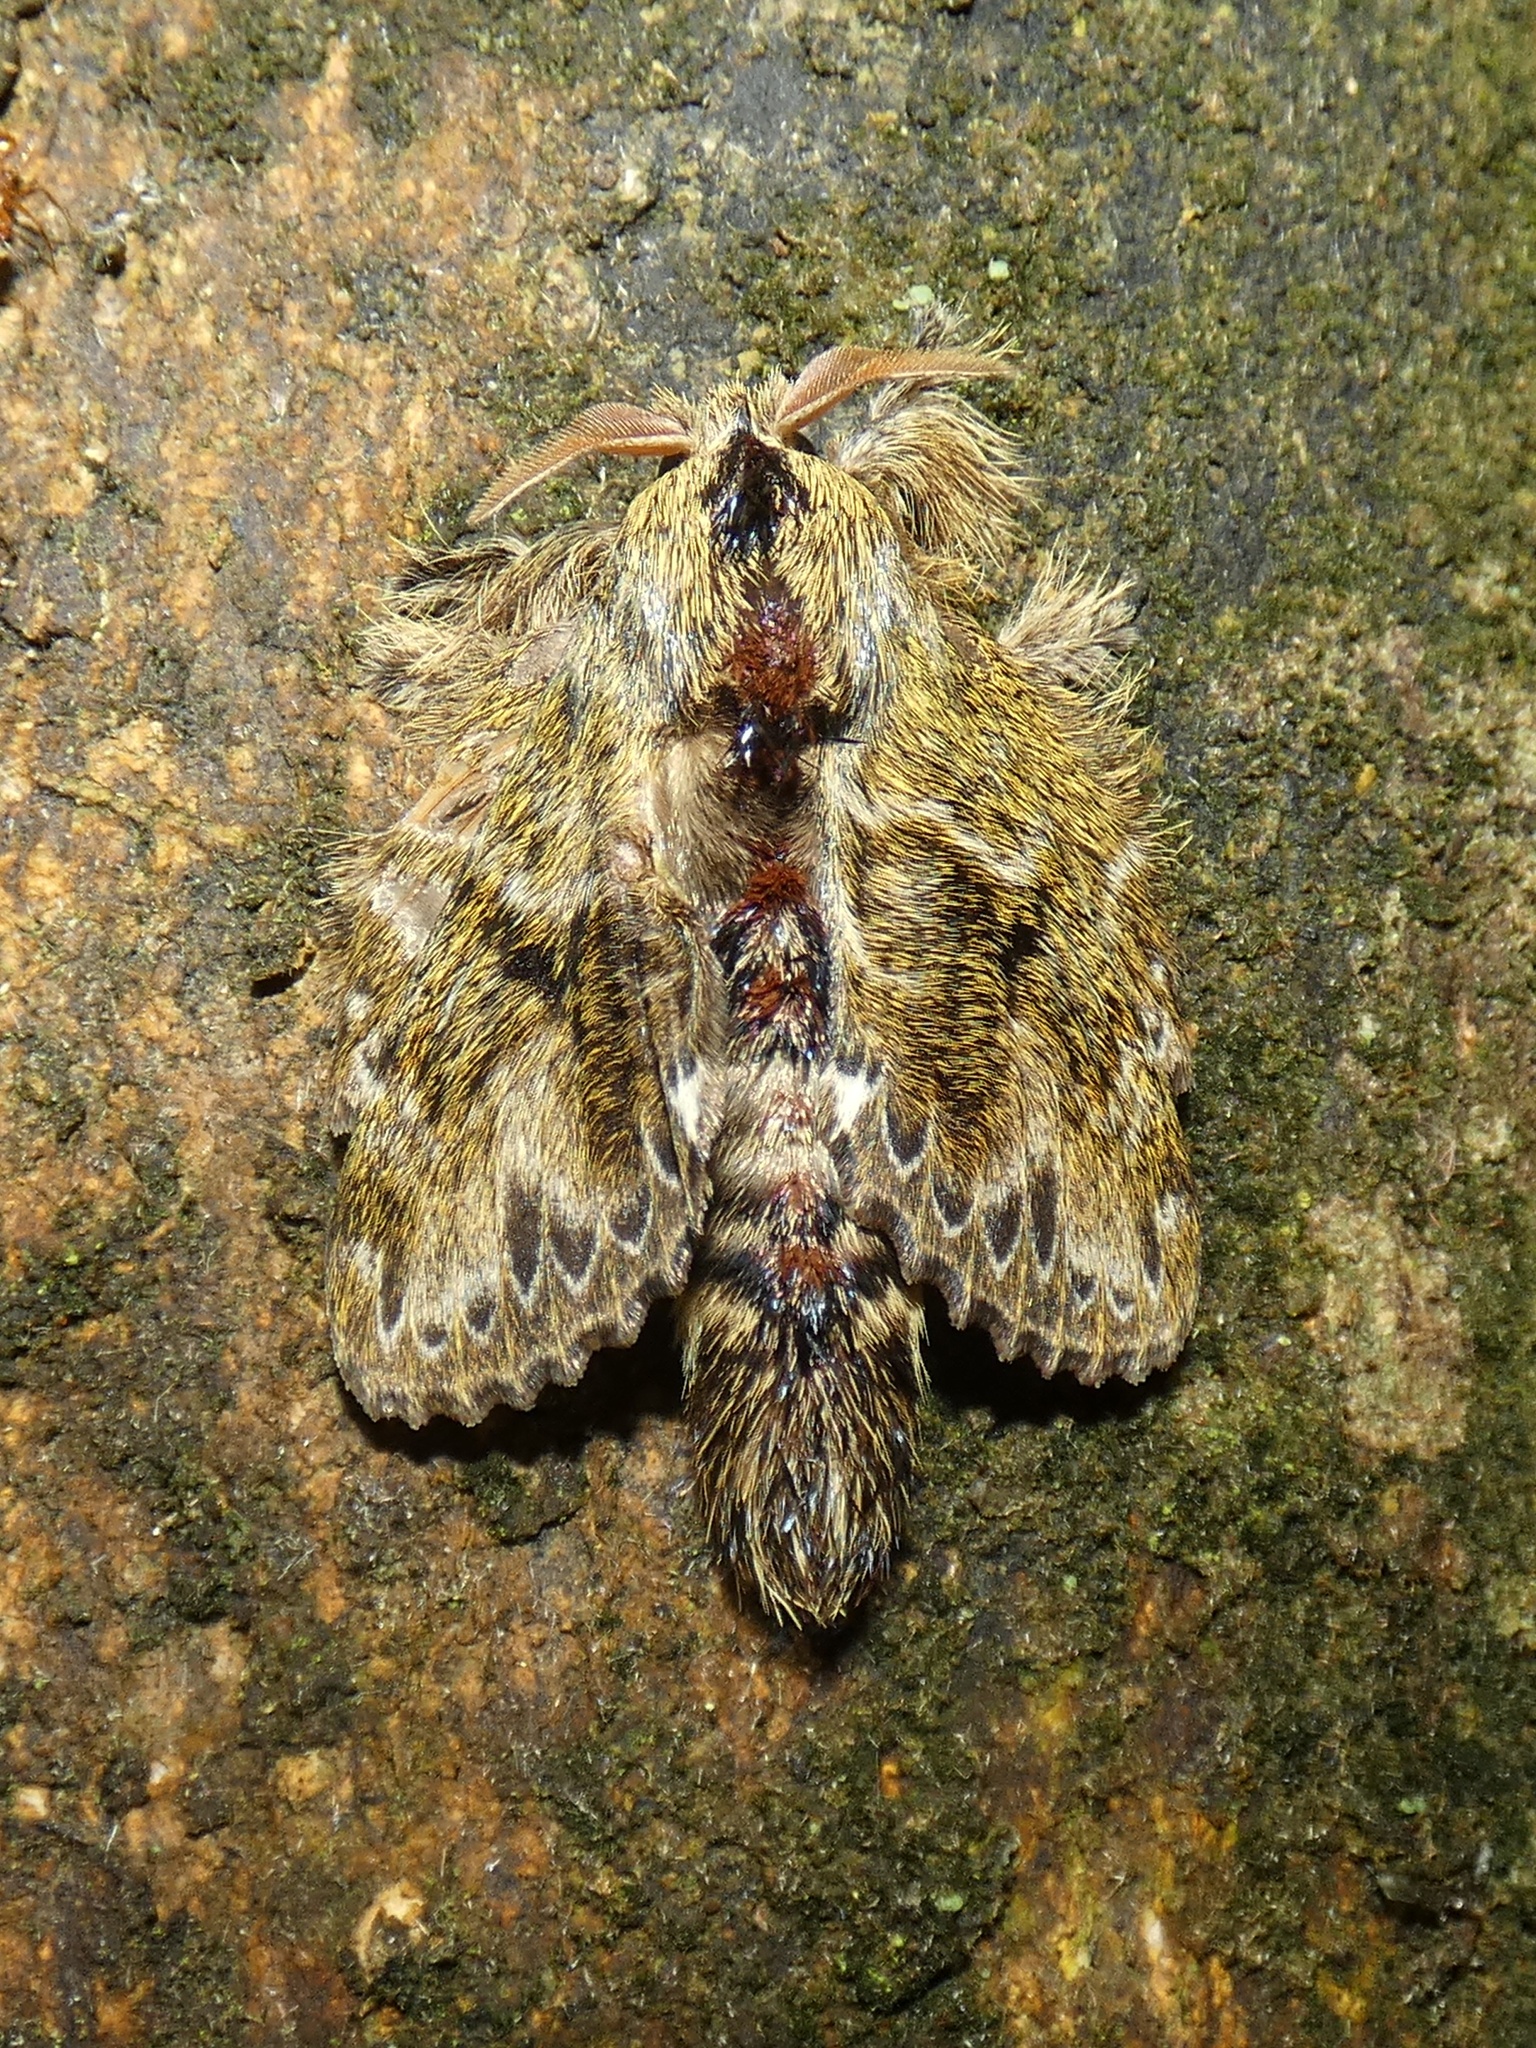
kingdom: Animalia
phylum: Arthropoda
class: Insecta
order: Lepidoptera
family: Lasiocampidae
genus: Euglyphis
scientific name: Euglyphis
